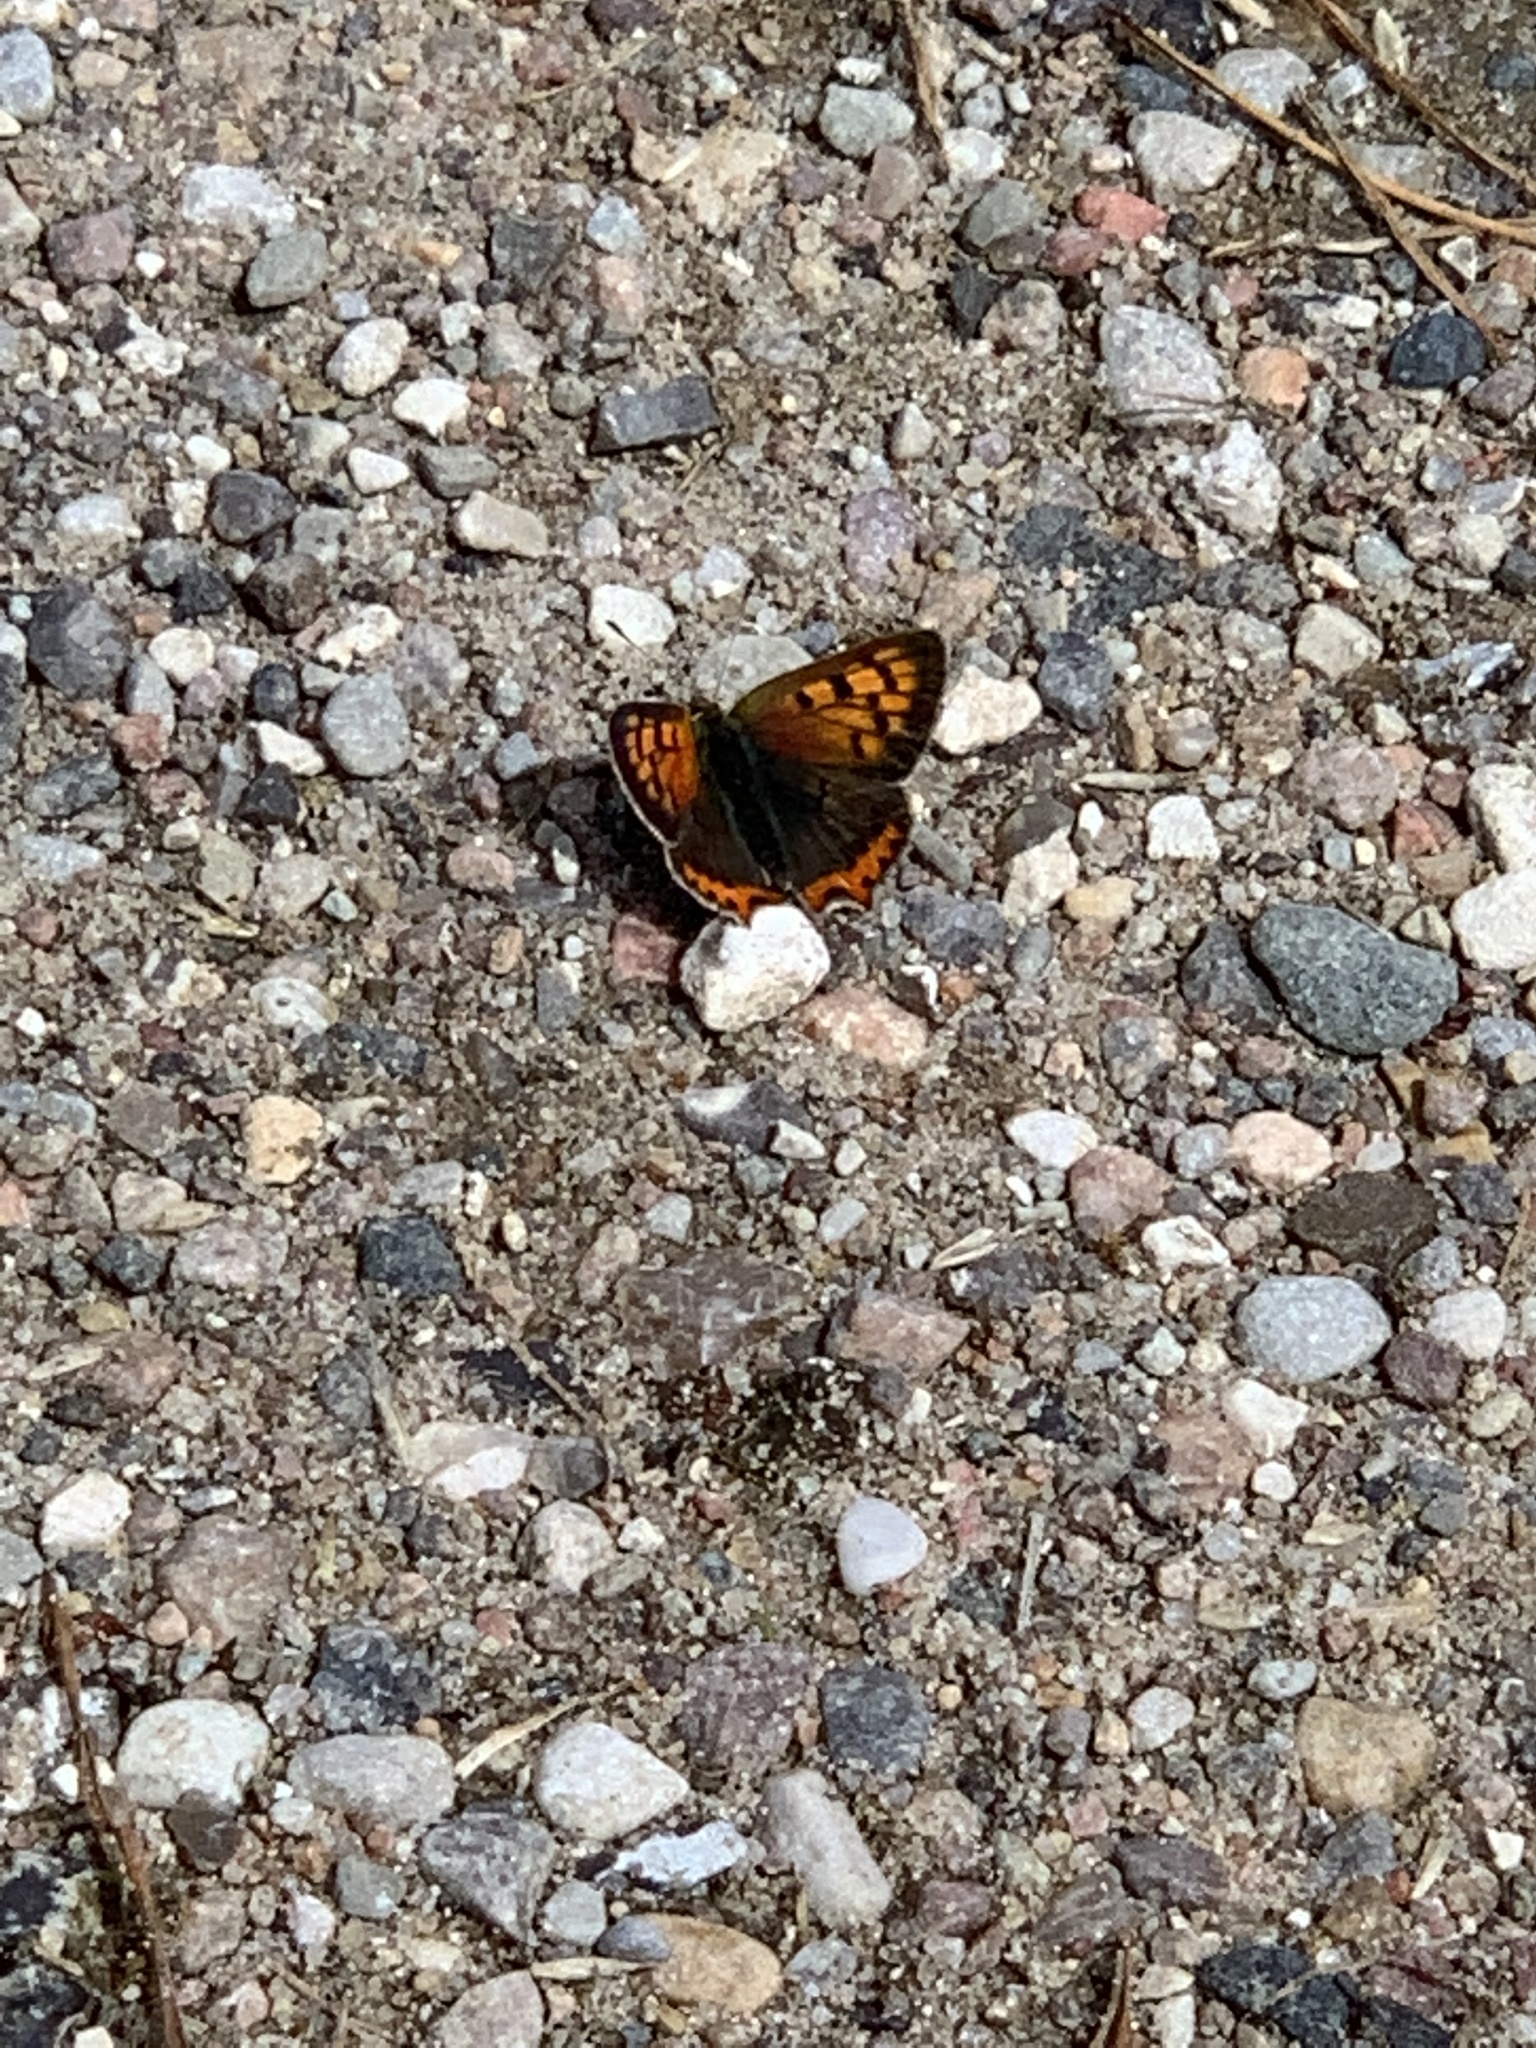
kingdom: Animalia
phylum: Arthropoda
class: Insecta
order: Lepidoptera
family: Lycaenidae
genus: Lycaena
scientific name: Lycaena phlaeas
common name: Small copper
